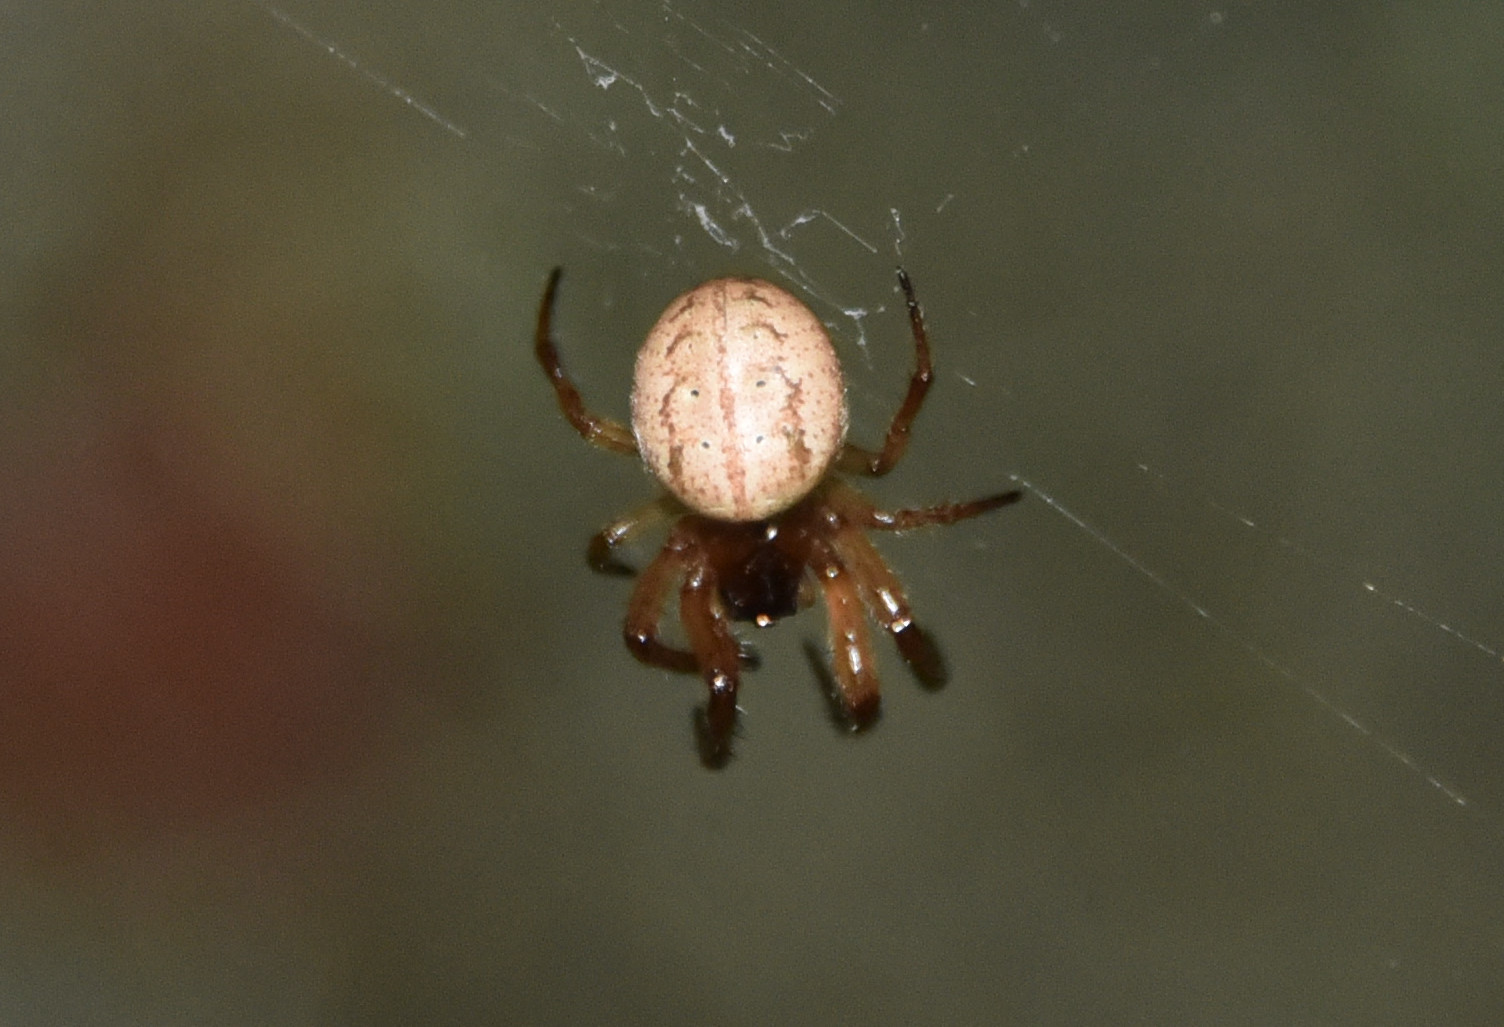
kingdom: Animalia
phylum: Arthropoda
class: Arachnida
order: Araneae
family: Araneidae
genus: Metazygia
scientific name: Metazygia wittfeldae
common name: Orb weavers
